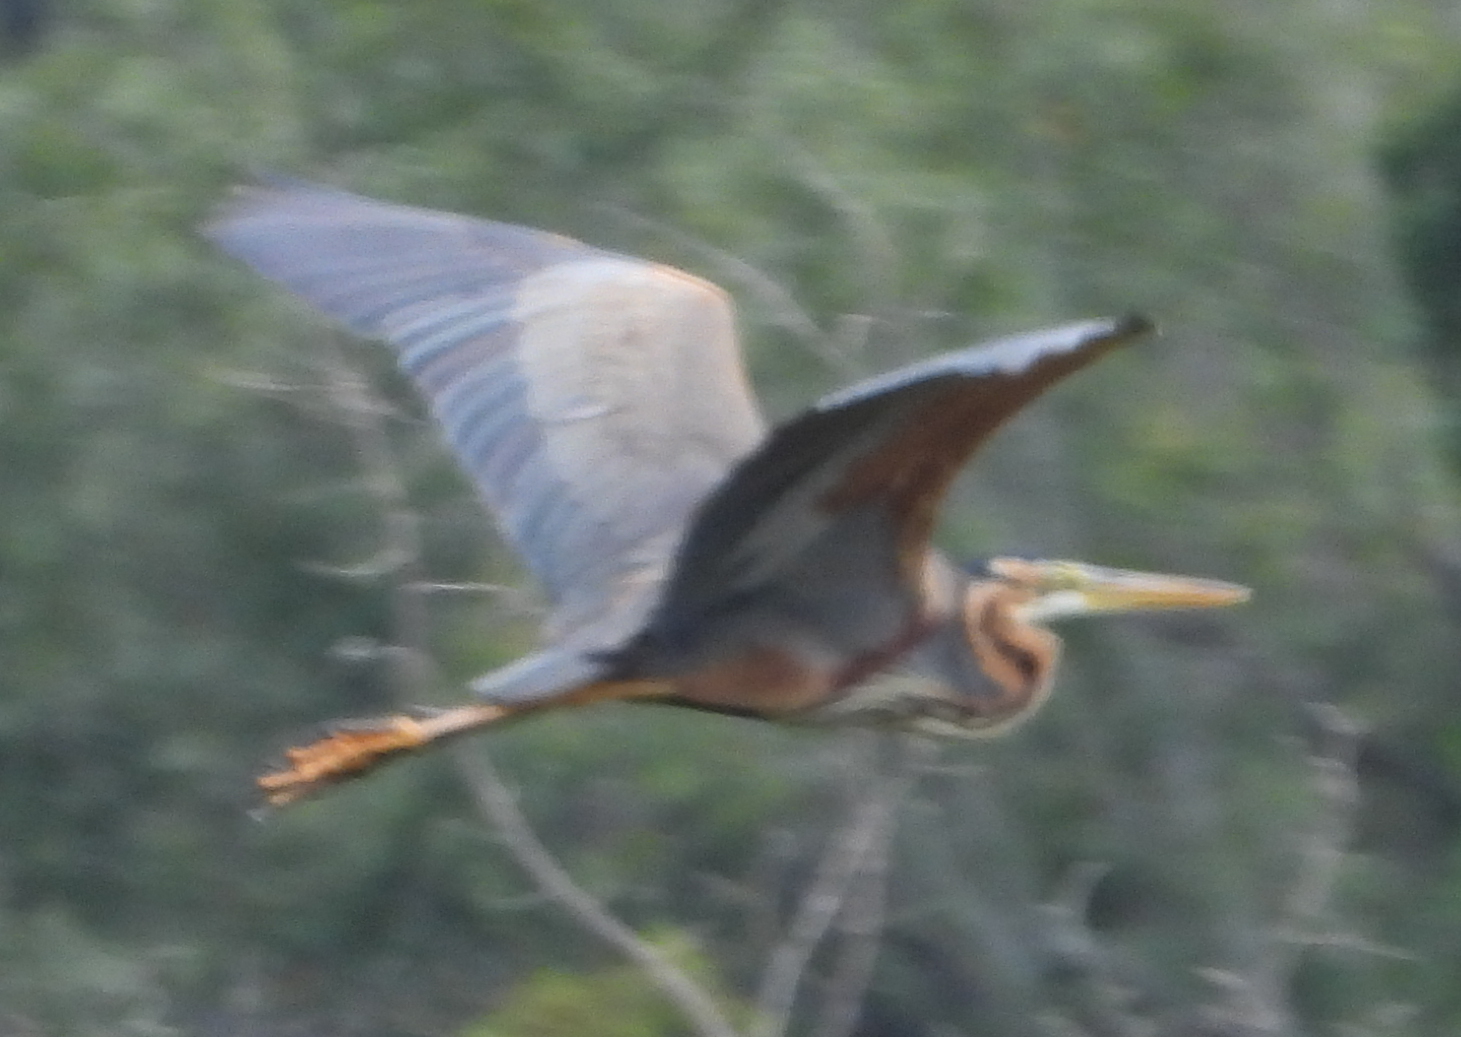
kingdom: Animalia
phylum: Chordata
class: Aves
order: Pelecaniformes
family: Ardeidae
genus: Ardea
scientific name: Ardea purpurea
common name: Purple heron
